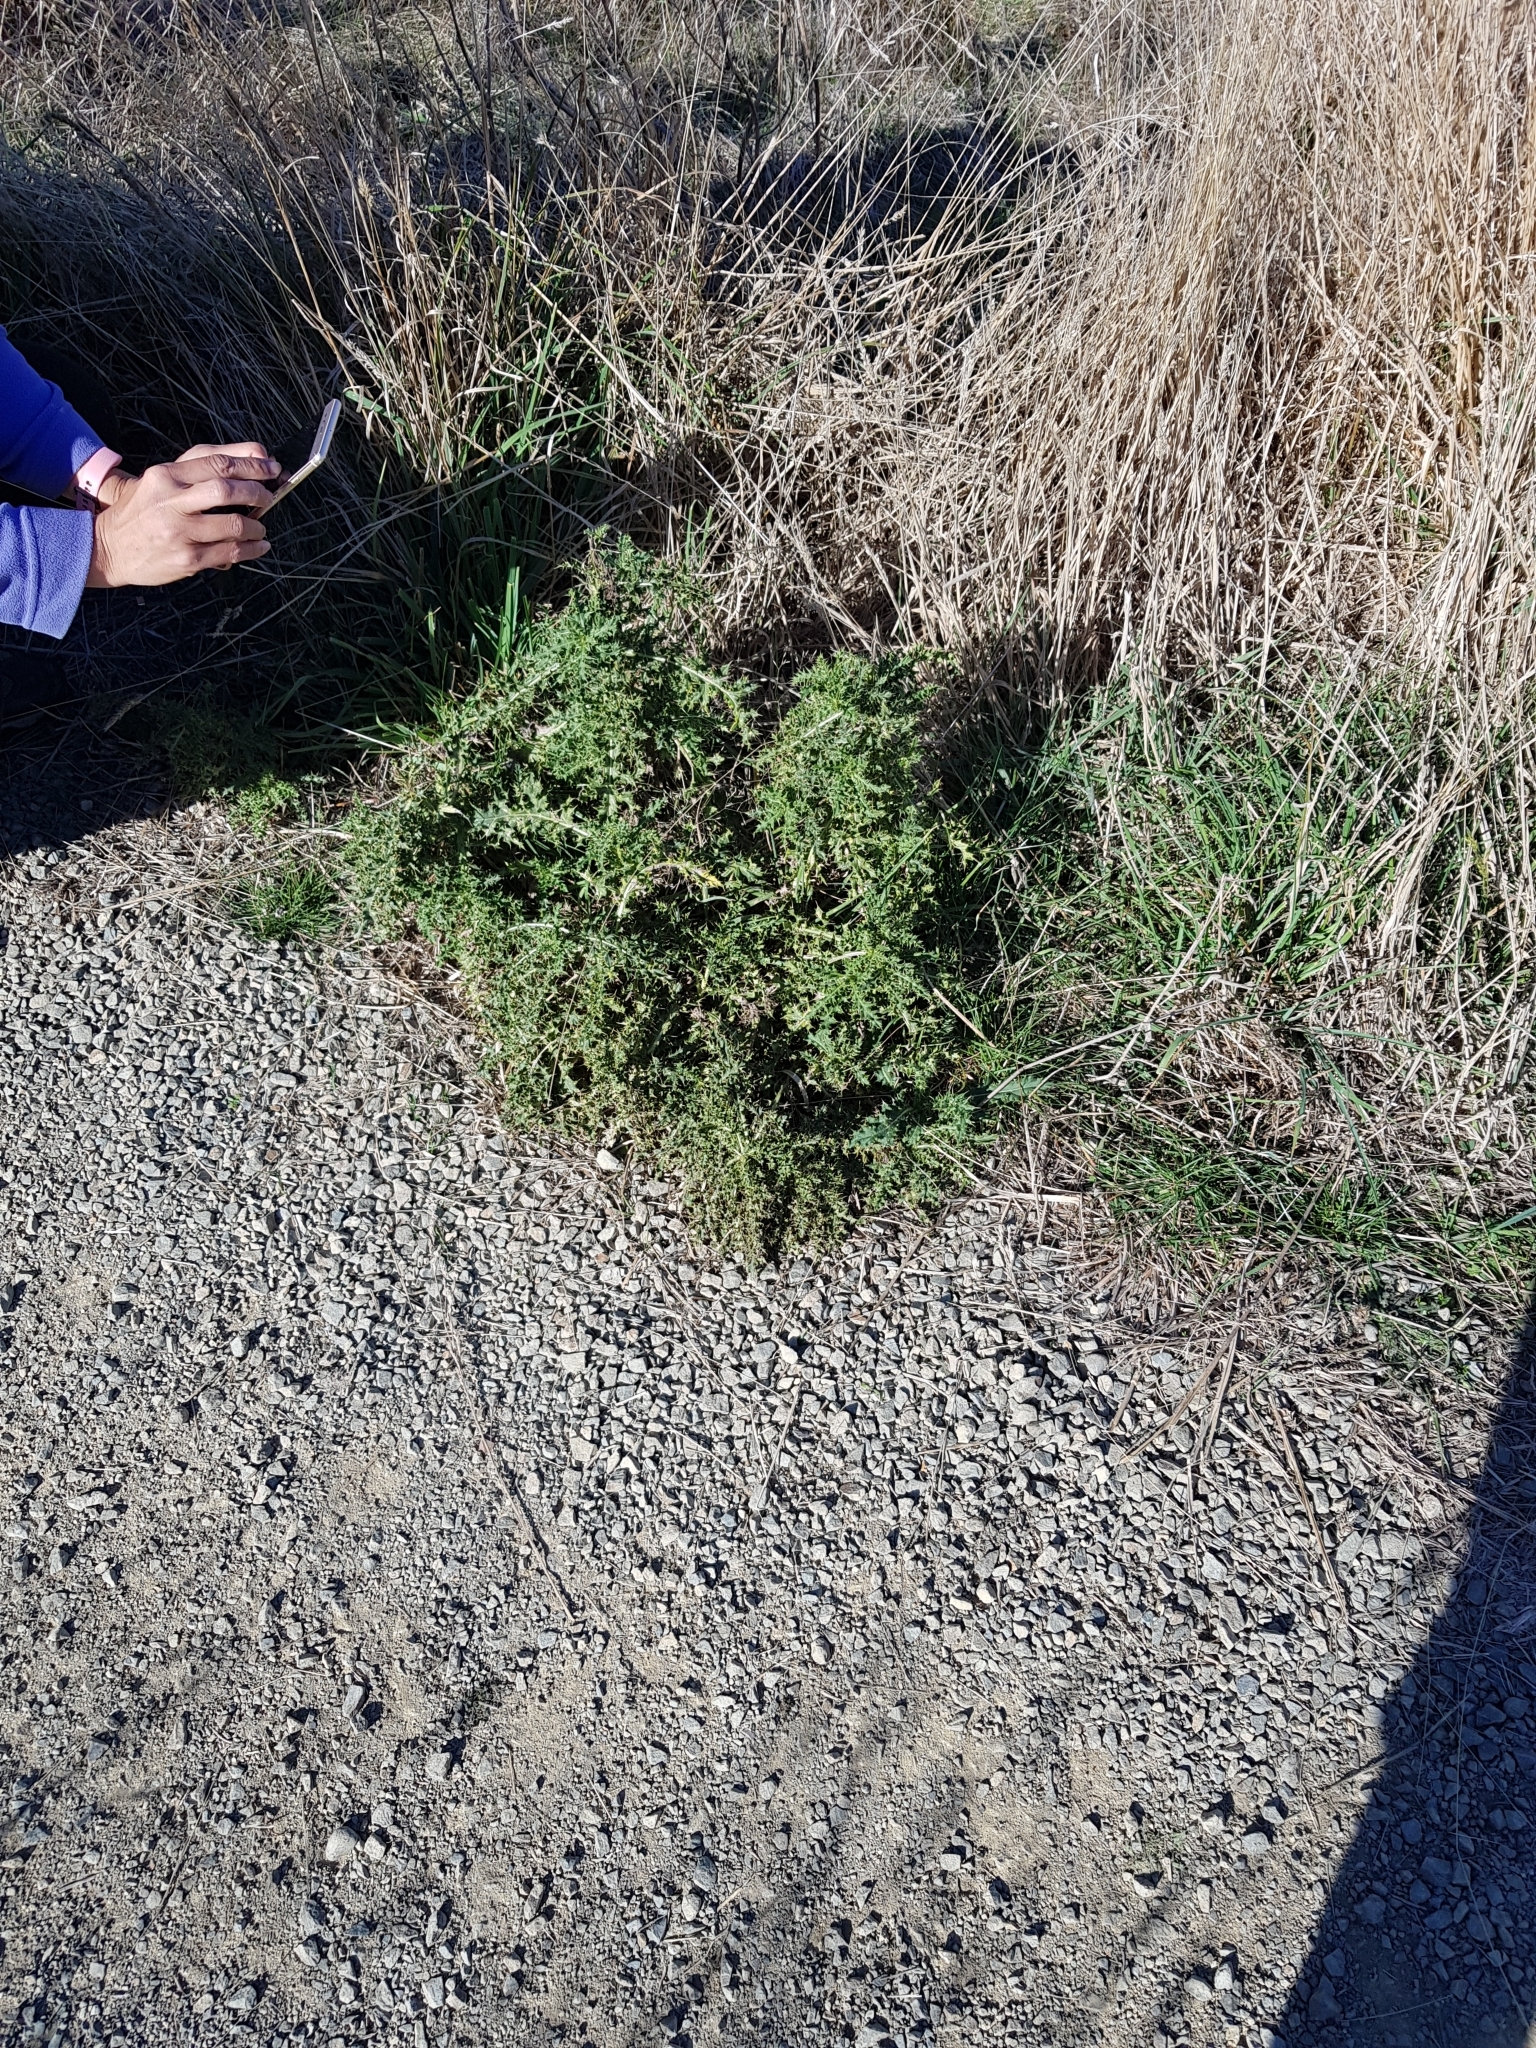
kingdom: Plantae
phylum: Tracheophyta
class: Magnoliopsida
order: Asterales
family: Asteraceae
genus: Cirsium
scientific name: Cirsium arvense
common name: Creeping thistle
